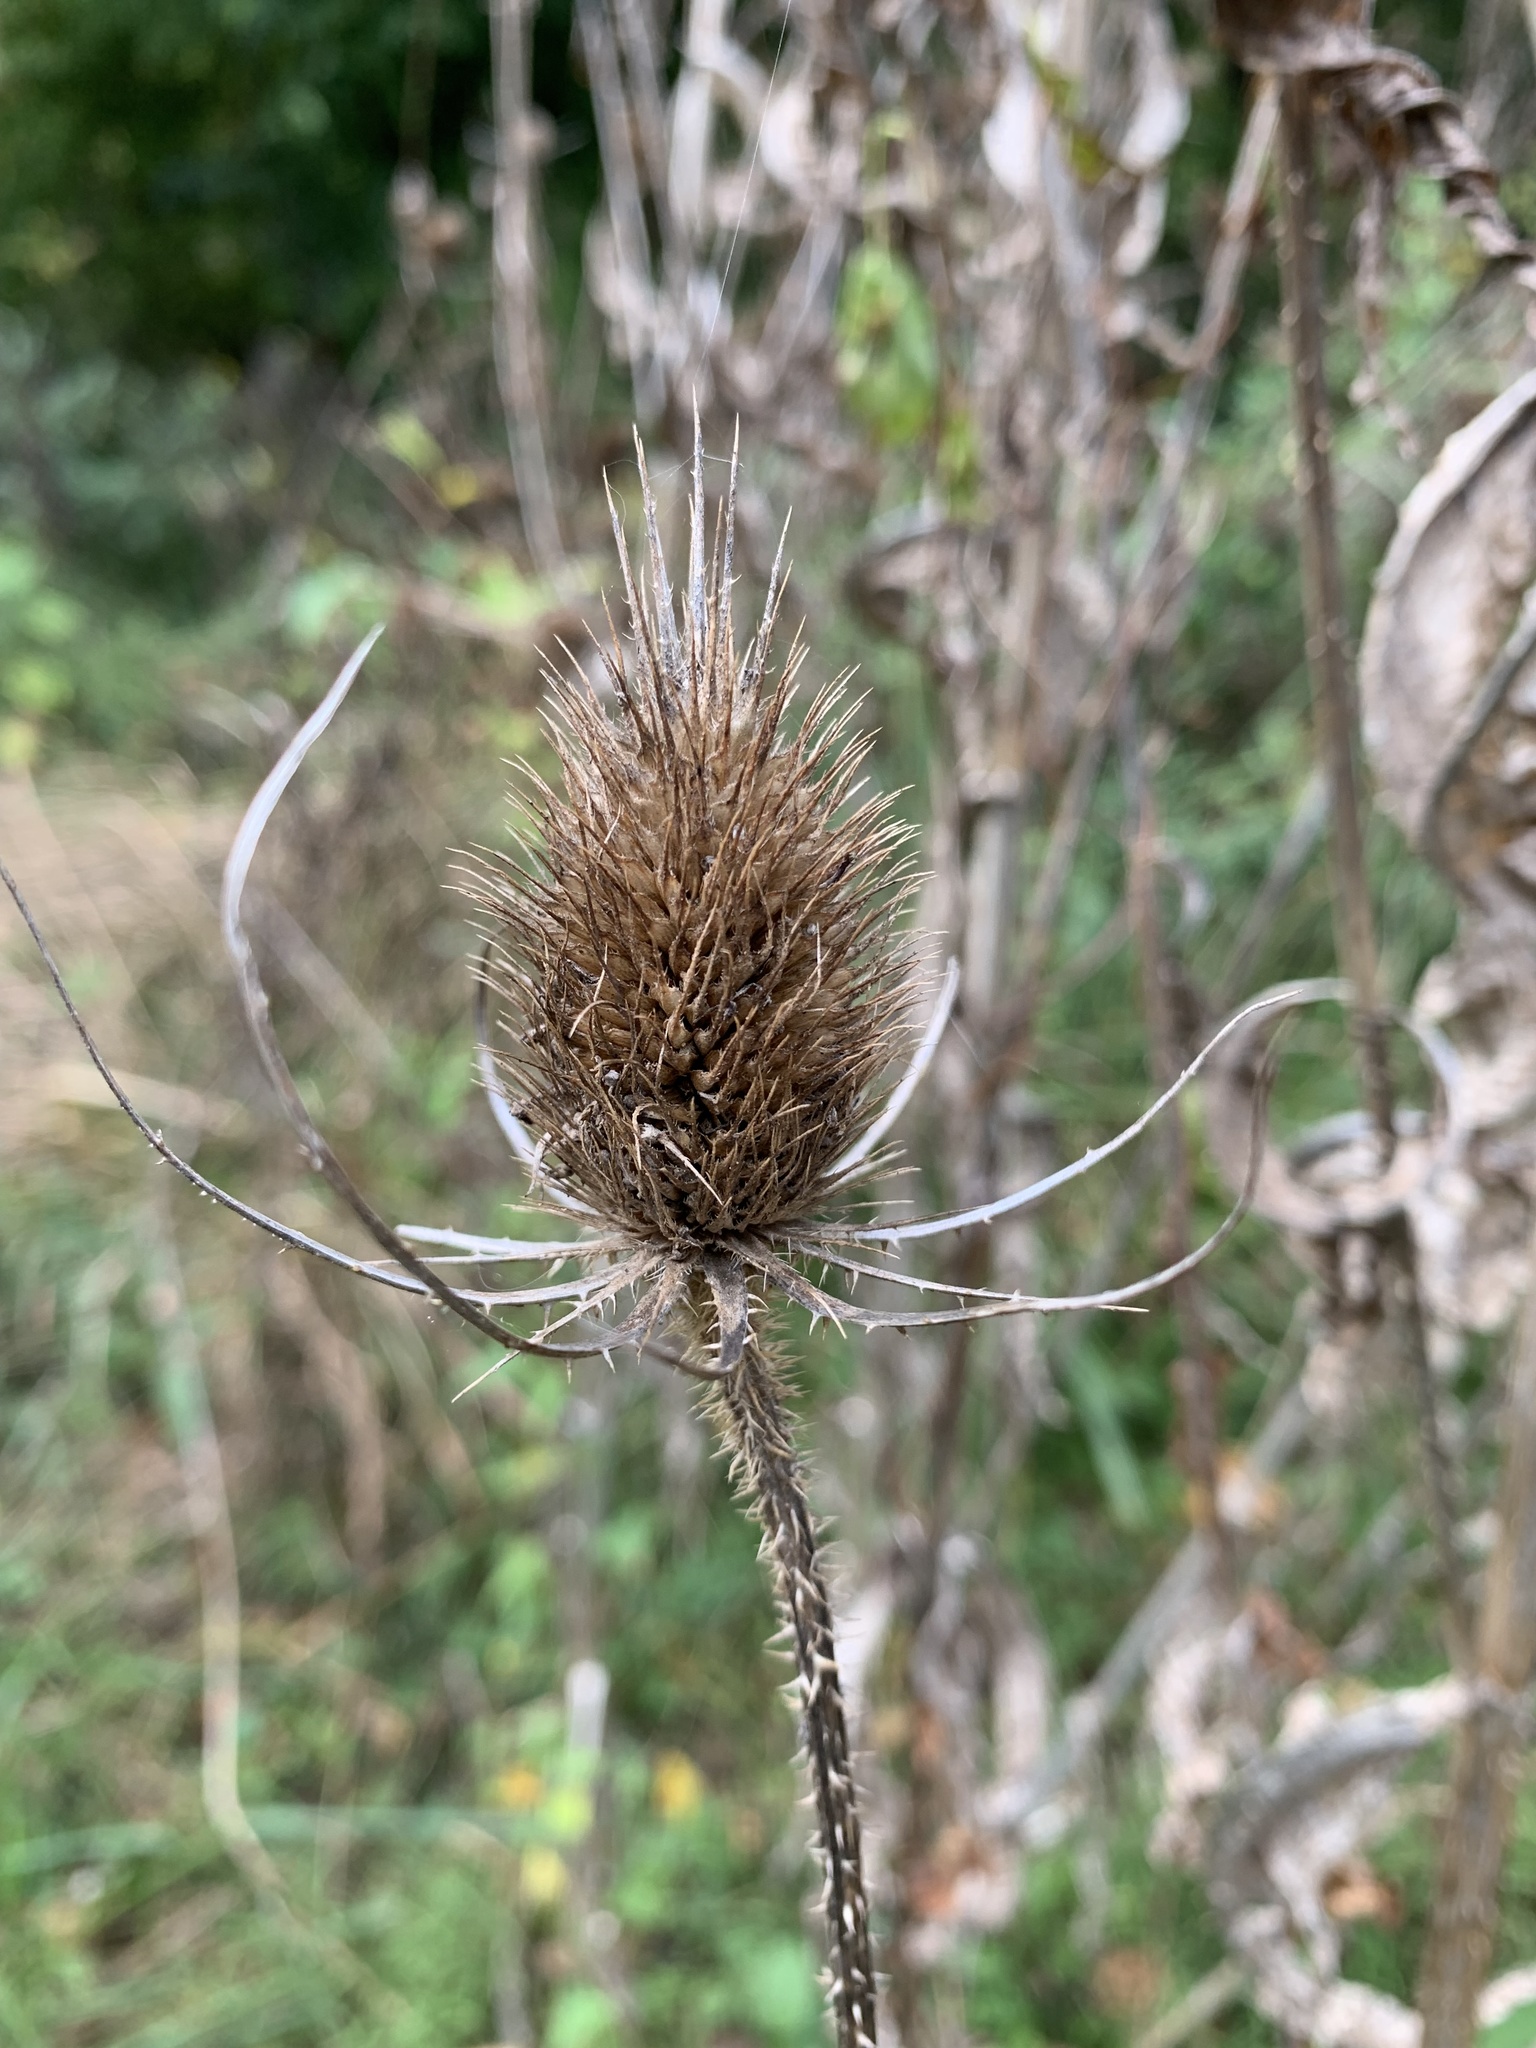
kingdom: Plantae
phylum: Tracheophyta
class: Magnoliopsida
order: Dipsacales
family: Caprifoliaceae
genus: Dipsacus
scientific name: Dipsacus fullonum
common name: Teasel
